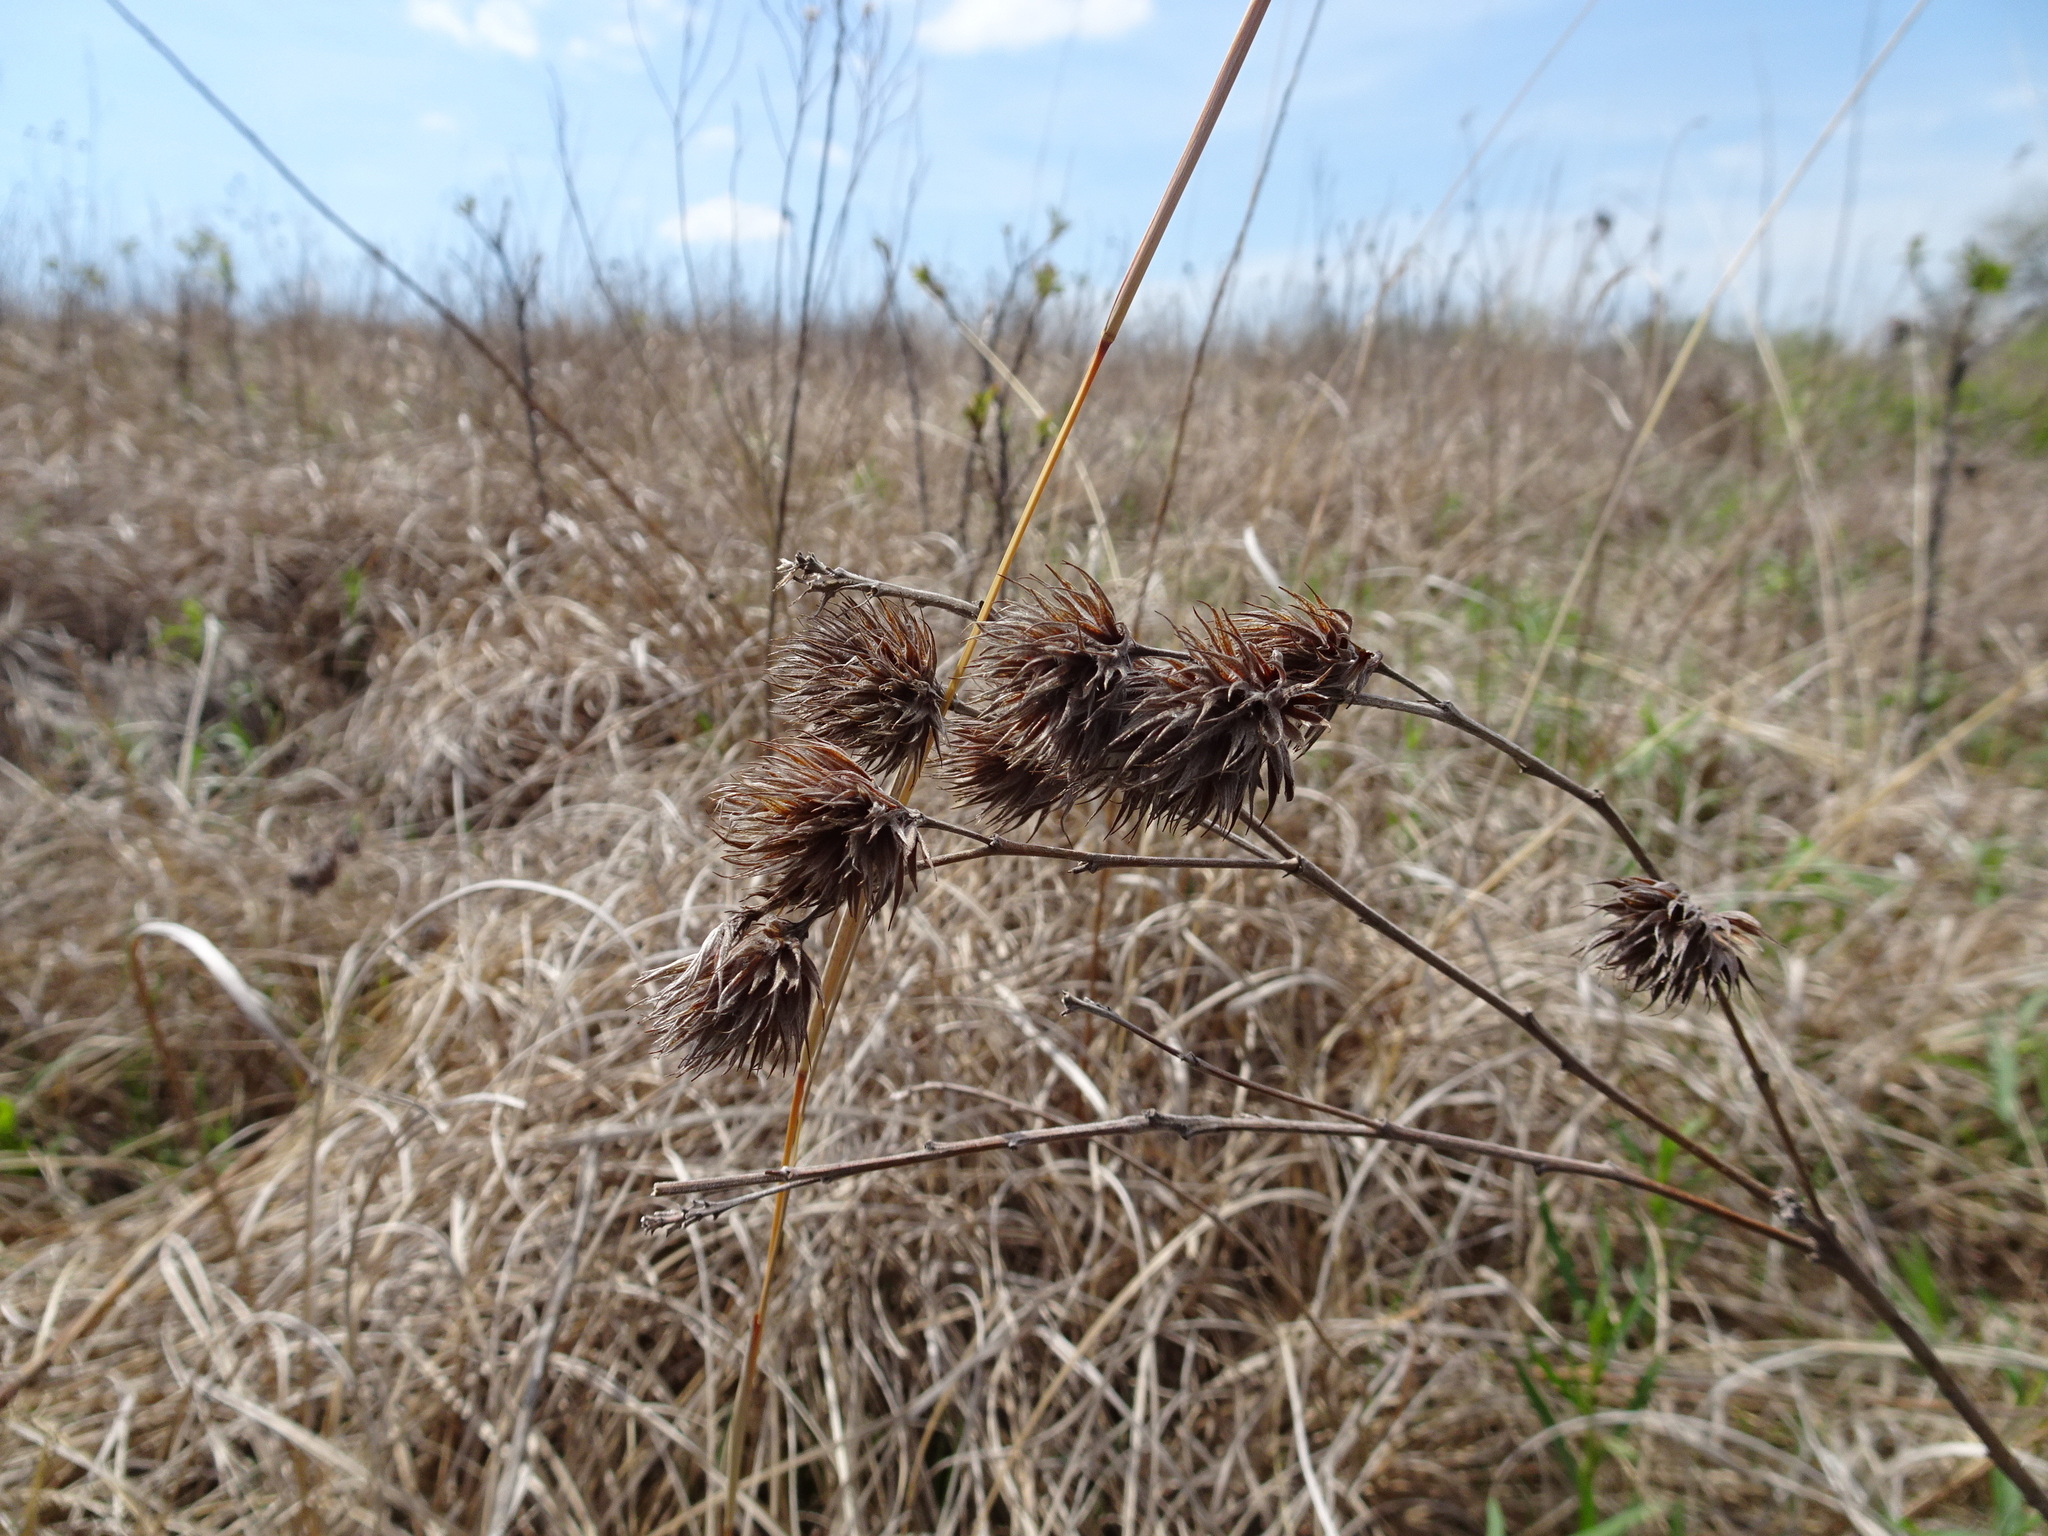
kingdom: Plantae
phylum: Tracheophyta
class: Magnoliopsida
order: Fabales
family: Fabaceae
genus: Lespedeza
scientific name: Lespedeza capitata
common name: Dusty clover
